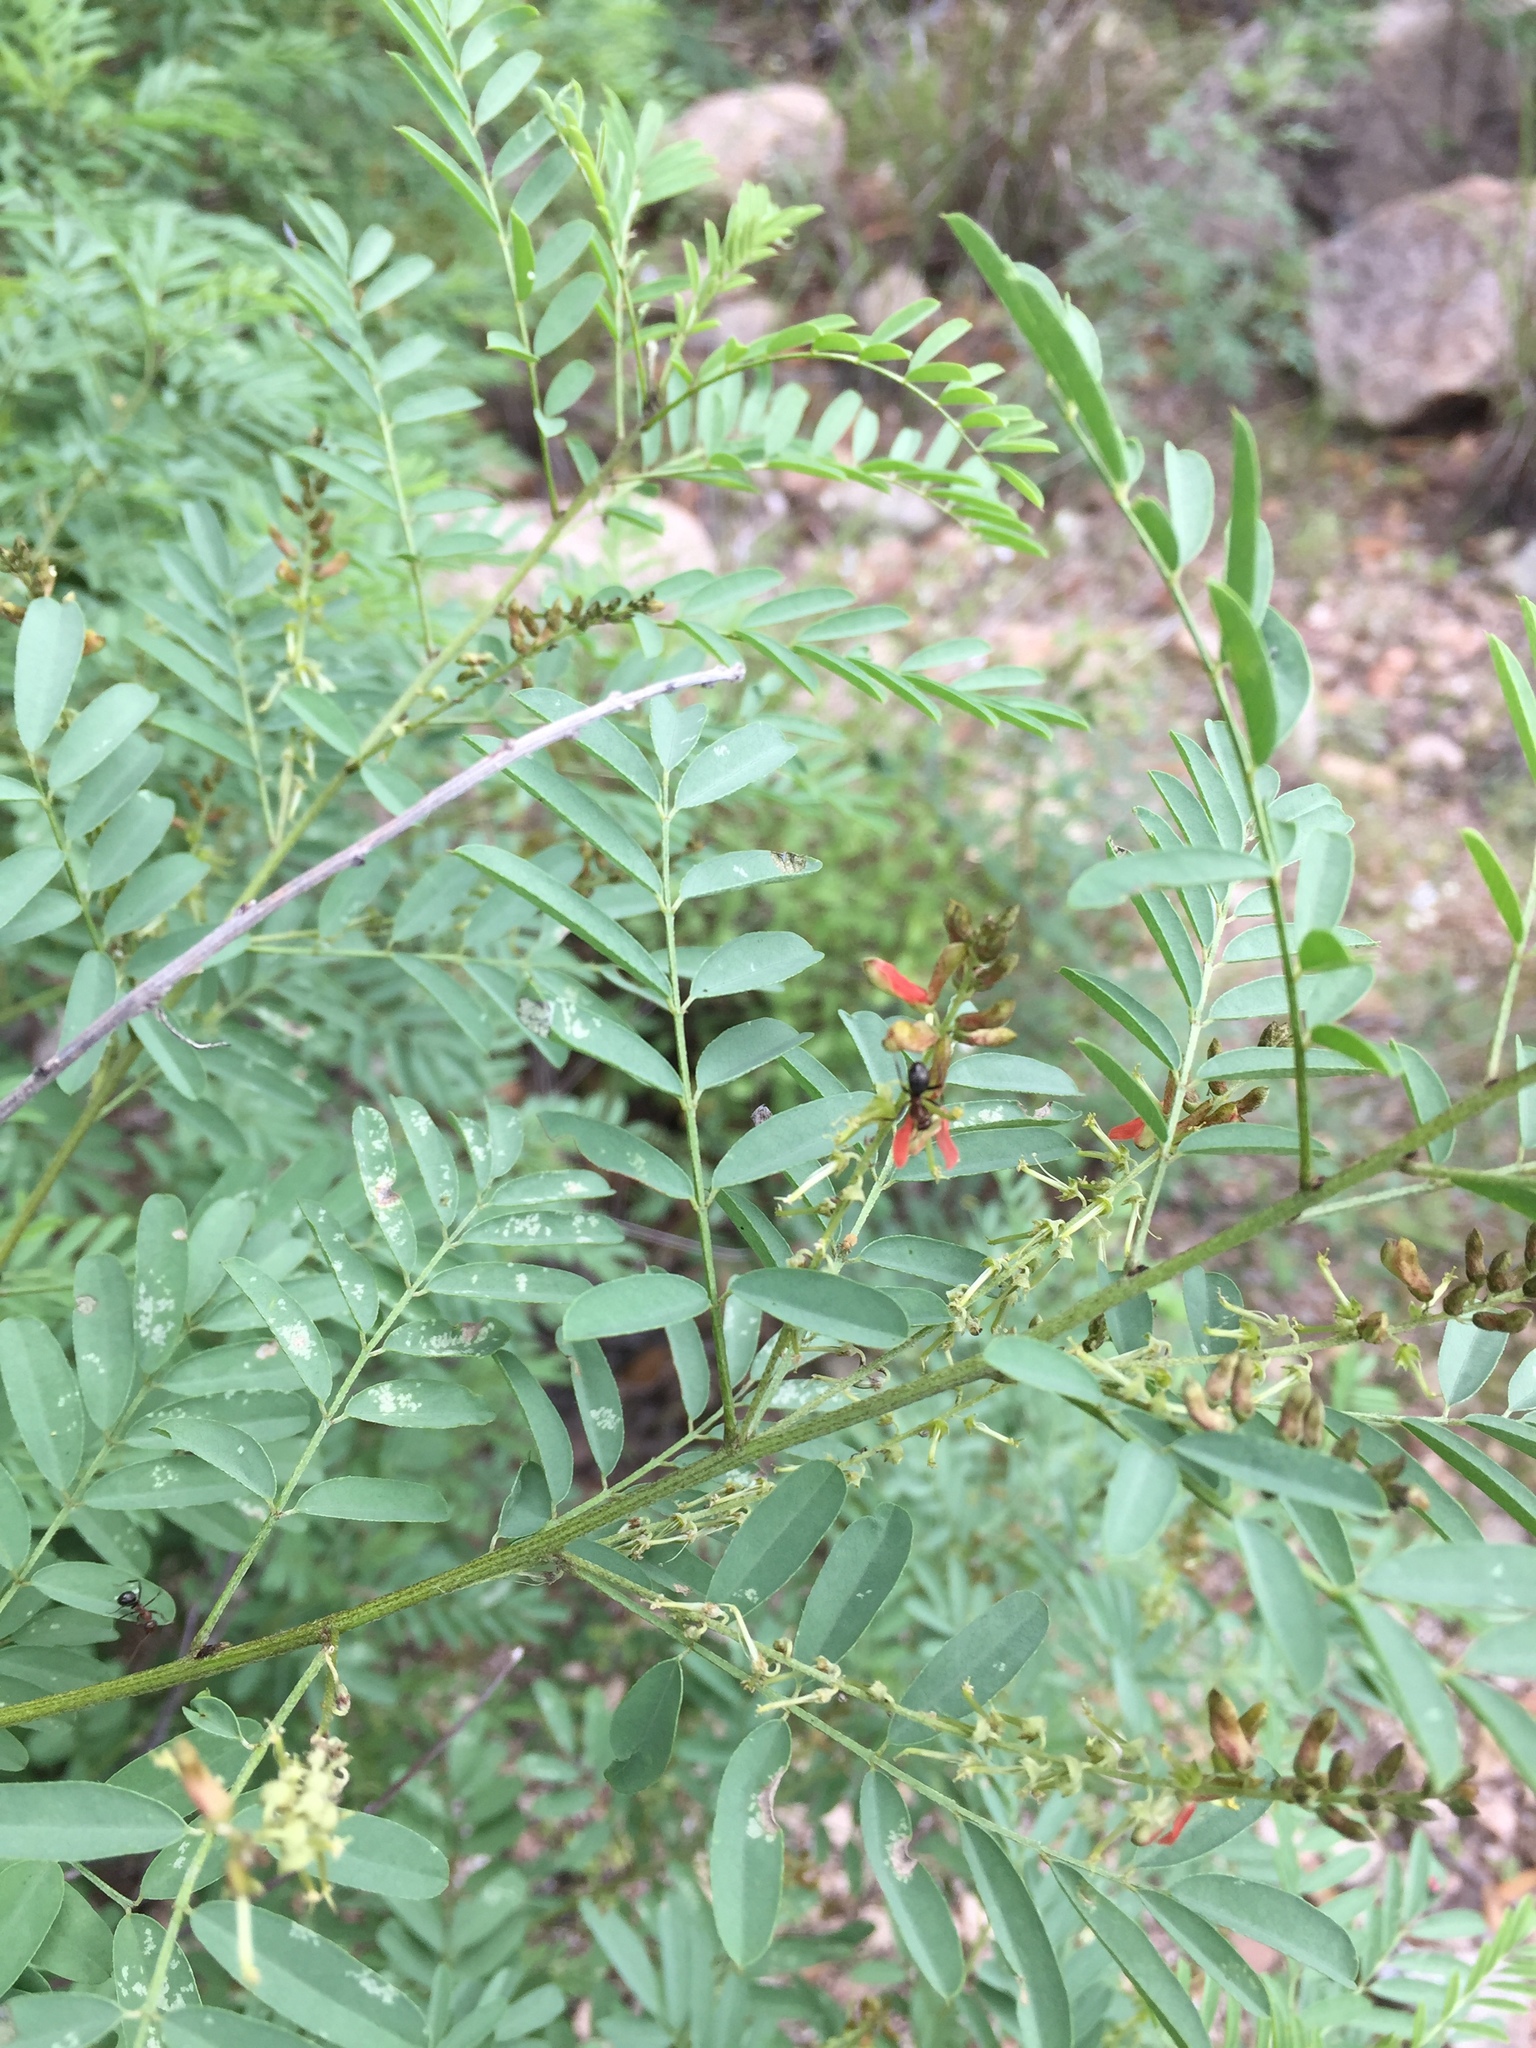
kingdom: Plantae
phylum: Tracheophyta
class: Magnoliopsida
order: Fabales
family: Fabaceae
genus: Indigofera
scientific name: Indigofera sphaerocarpa
